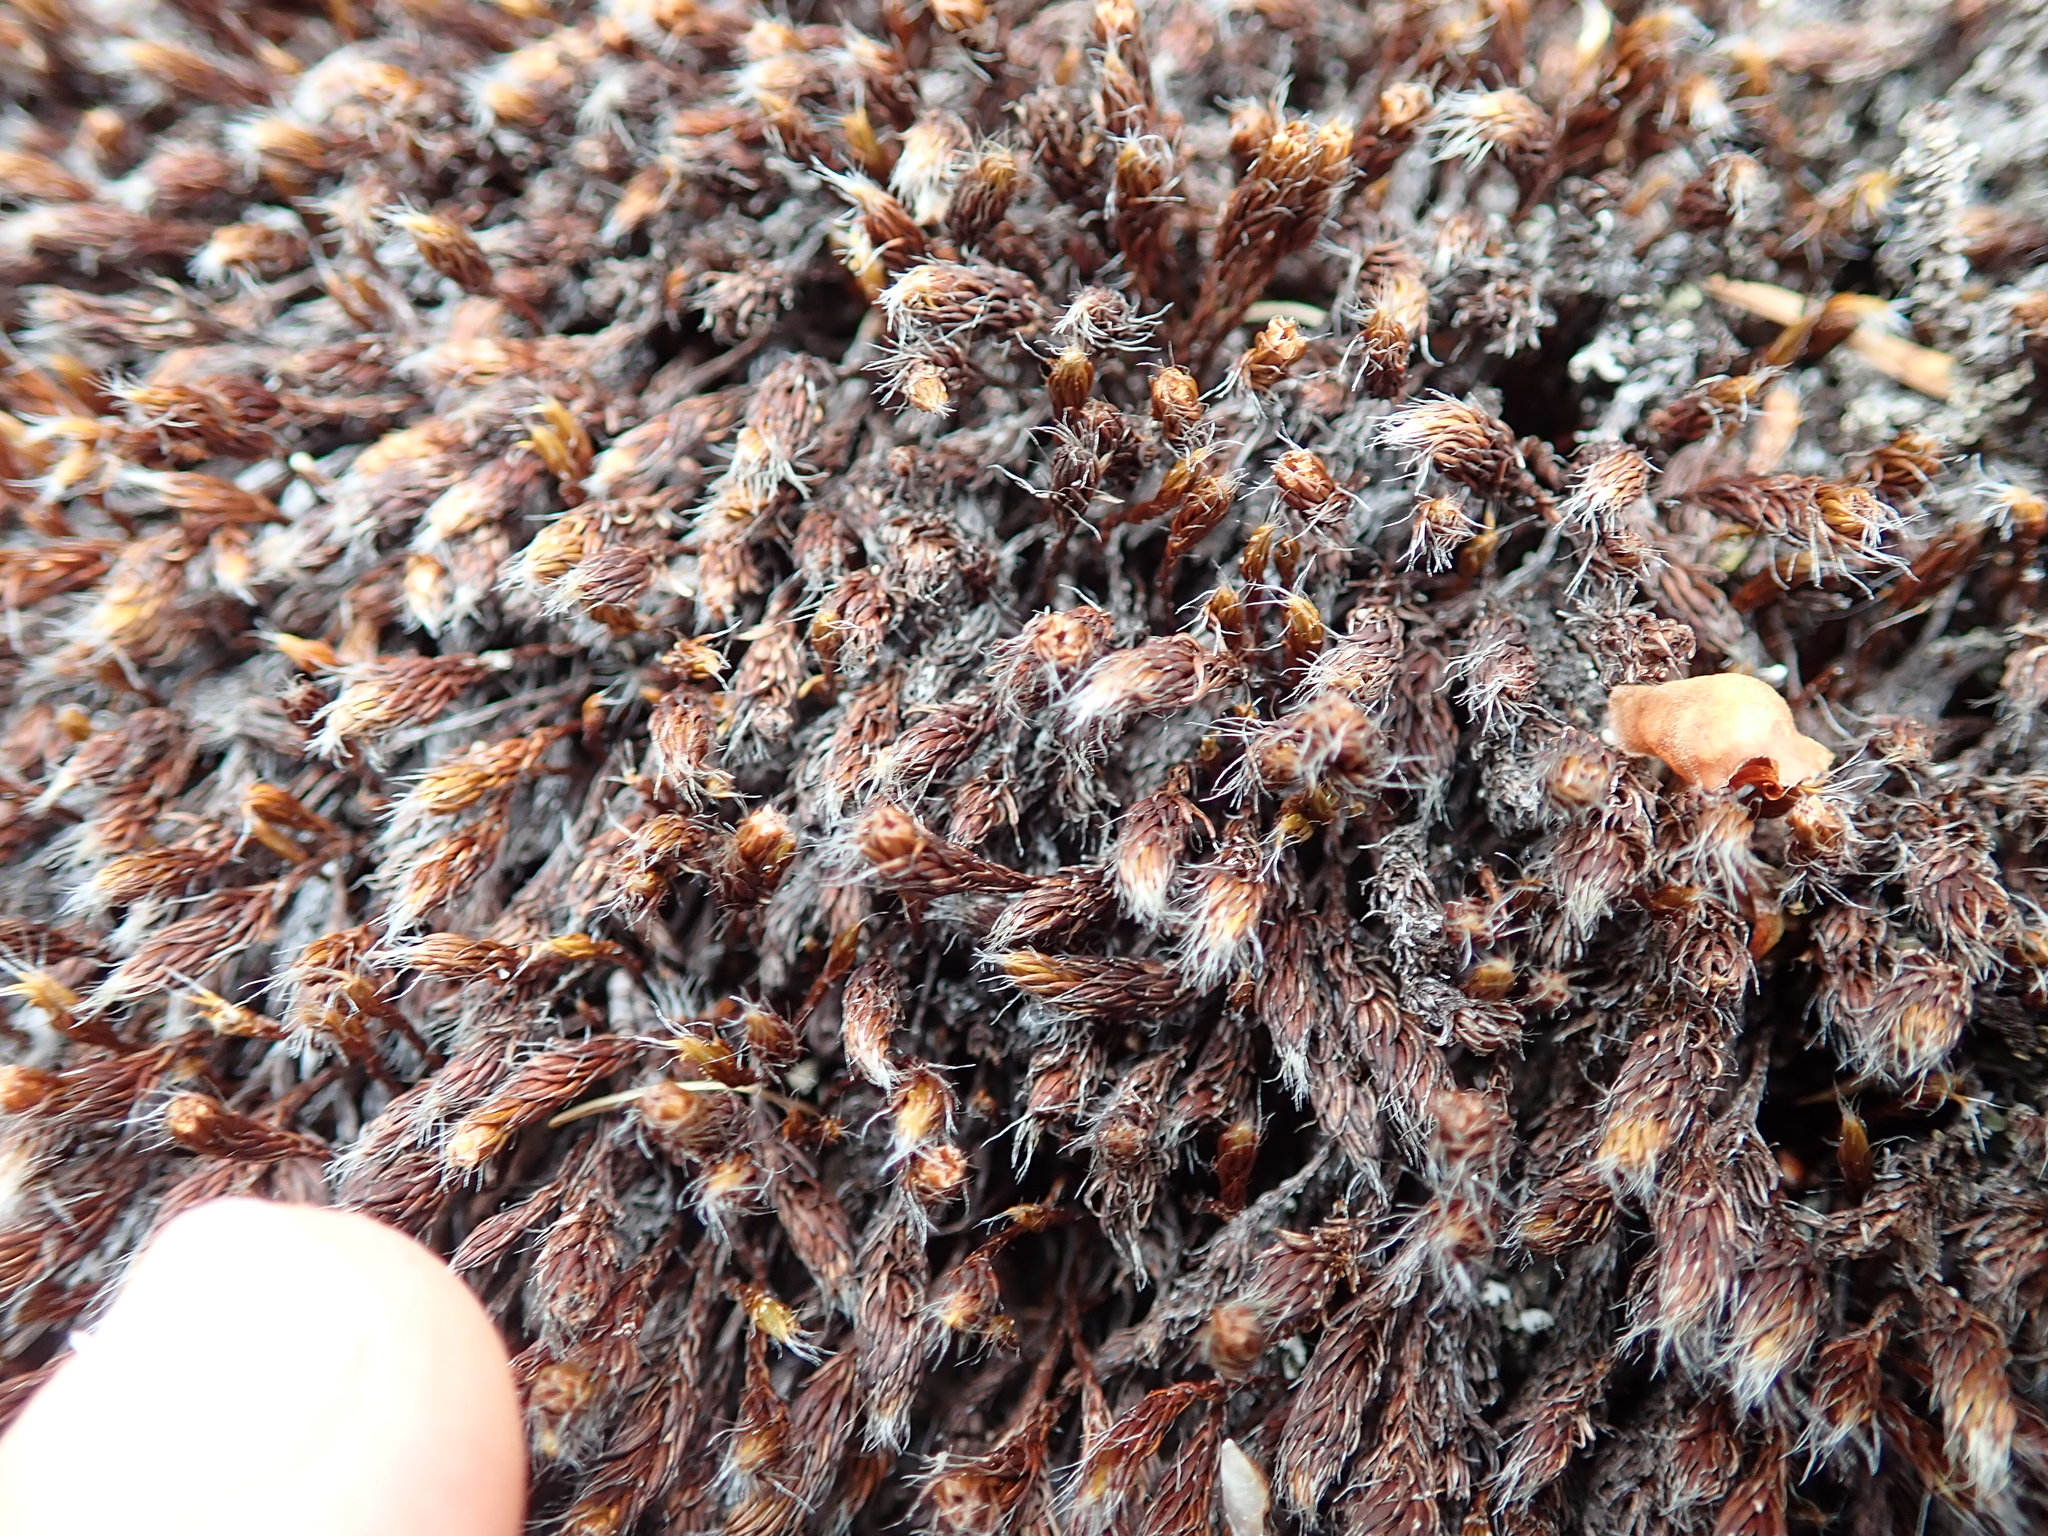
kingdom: Plantae
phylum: Bryophyta
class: Polytrichopsida
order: Polytrichales
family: Polytrichaceae
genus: Polytrichum
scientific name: Polytrichum piliferum
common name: Bristly haircap
